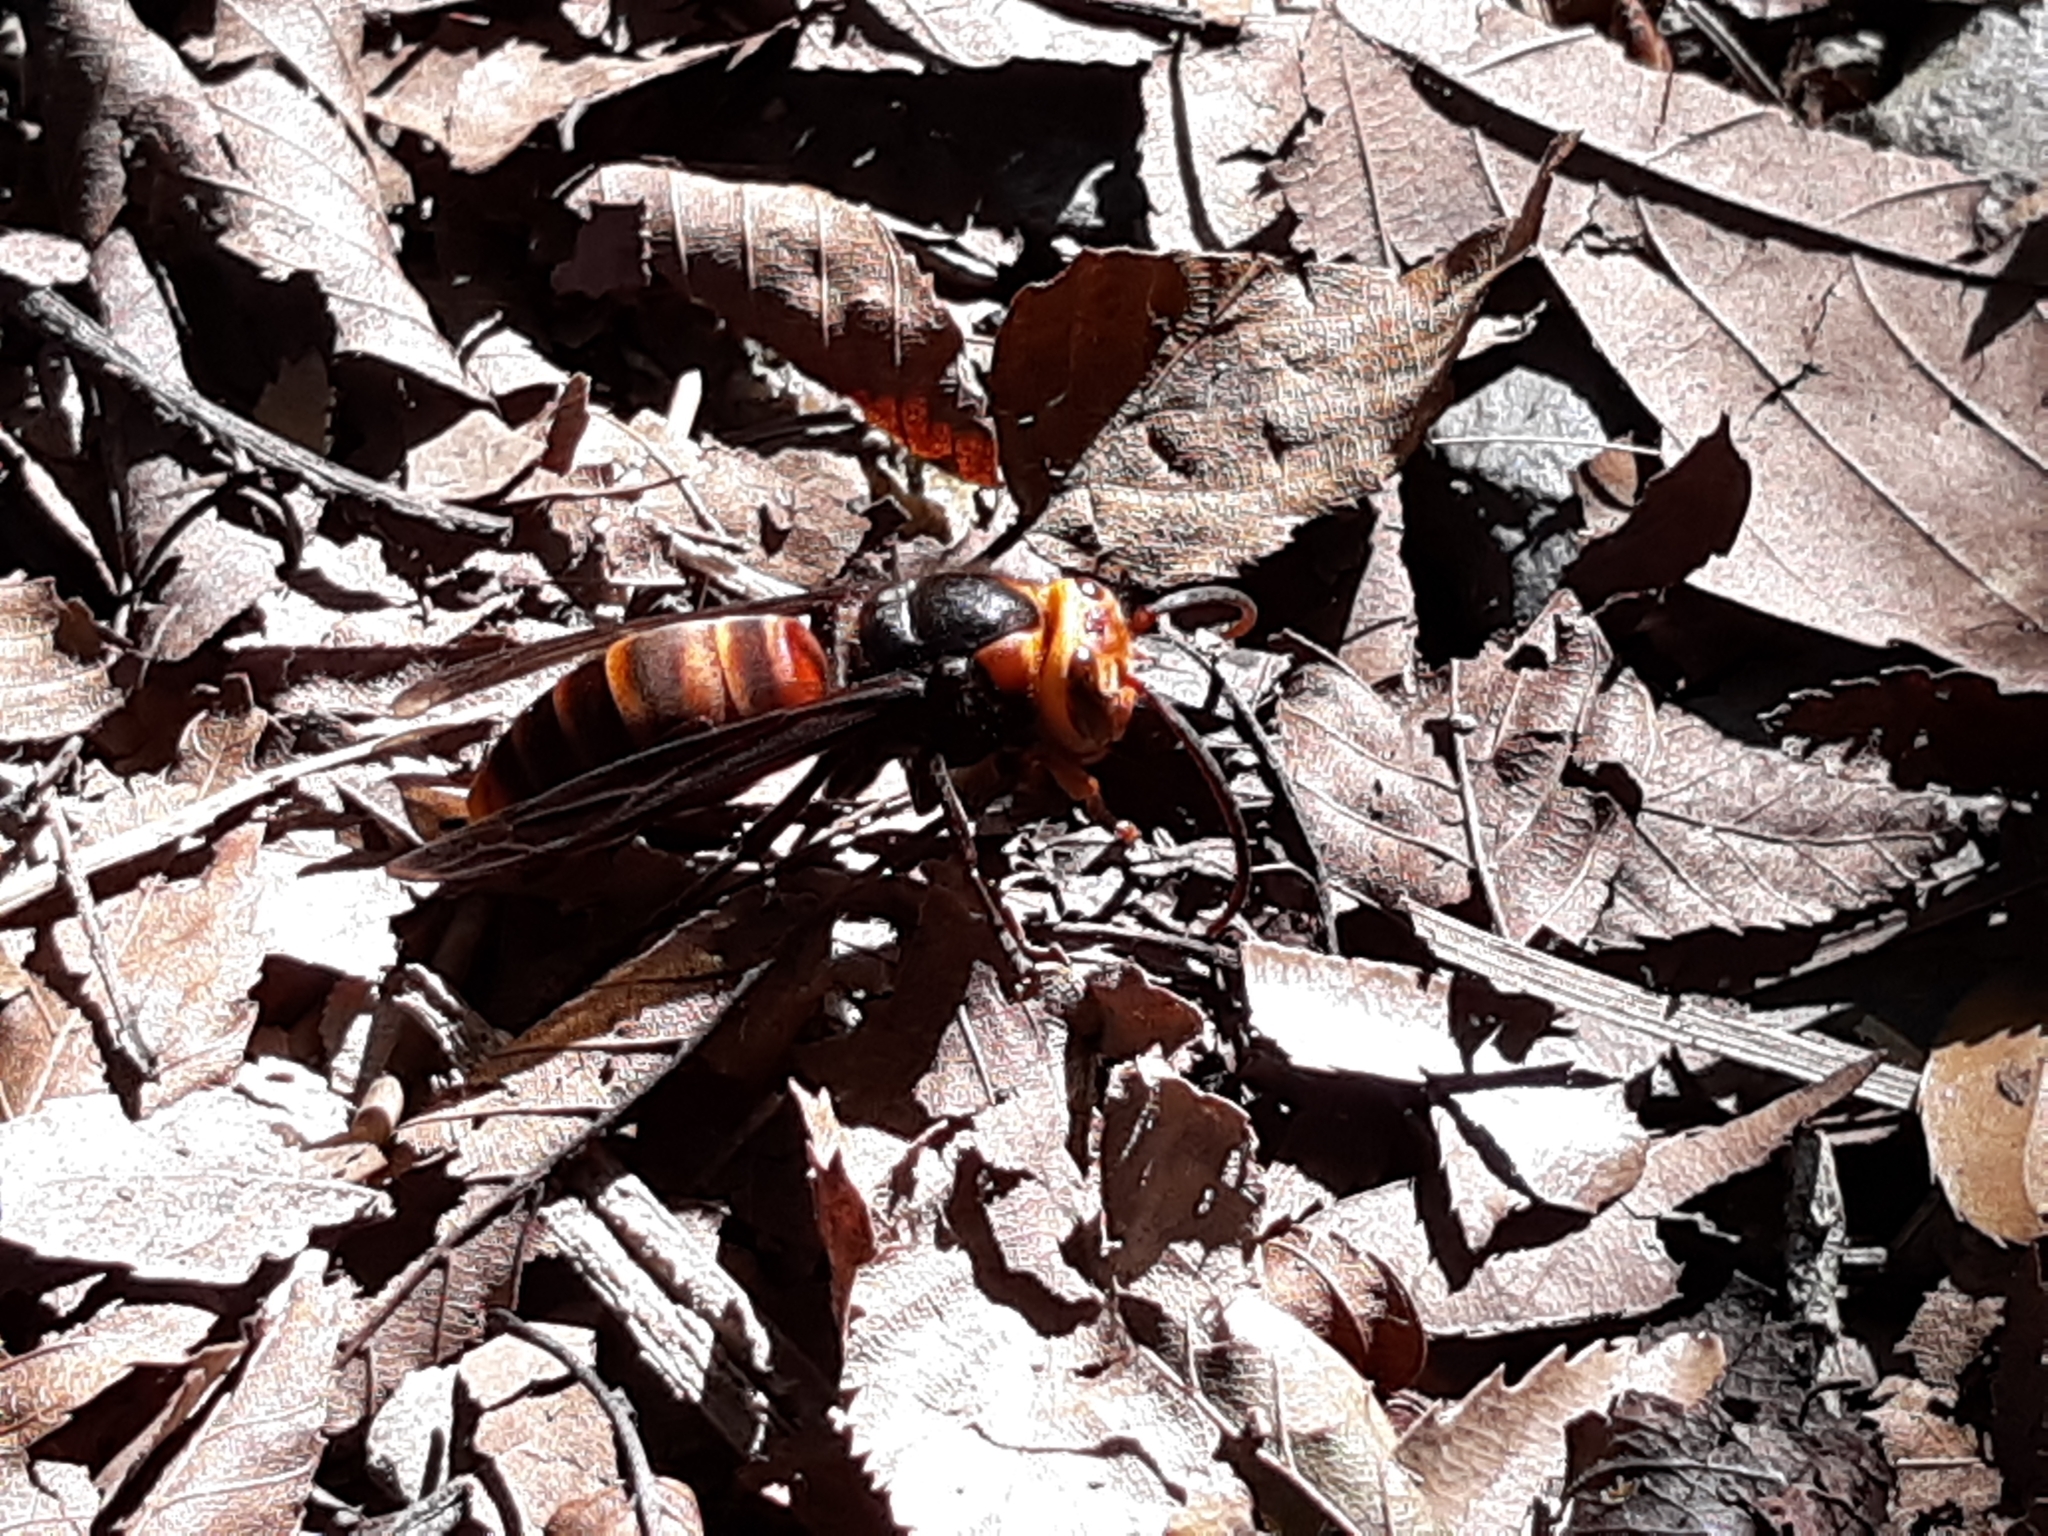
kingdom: Animalia
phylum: Arthropoda
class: Insecta
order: Hymenoptera
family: Vespidae
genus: Vespa
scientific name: Vespa analis
